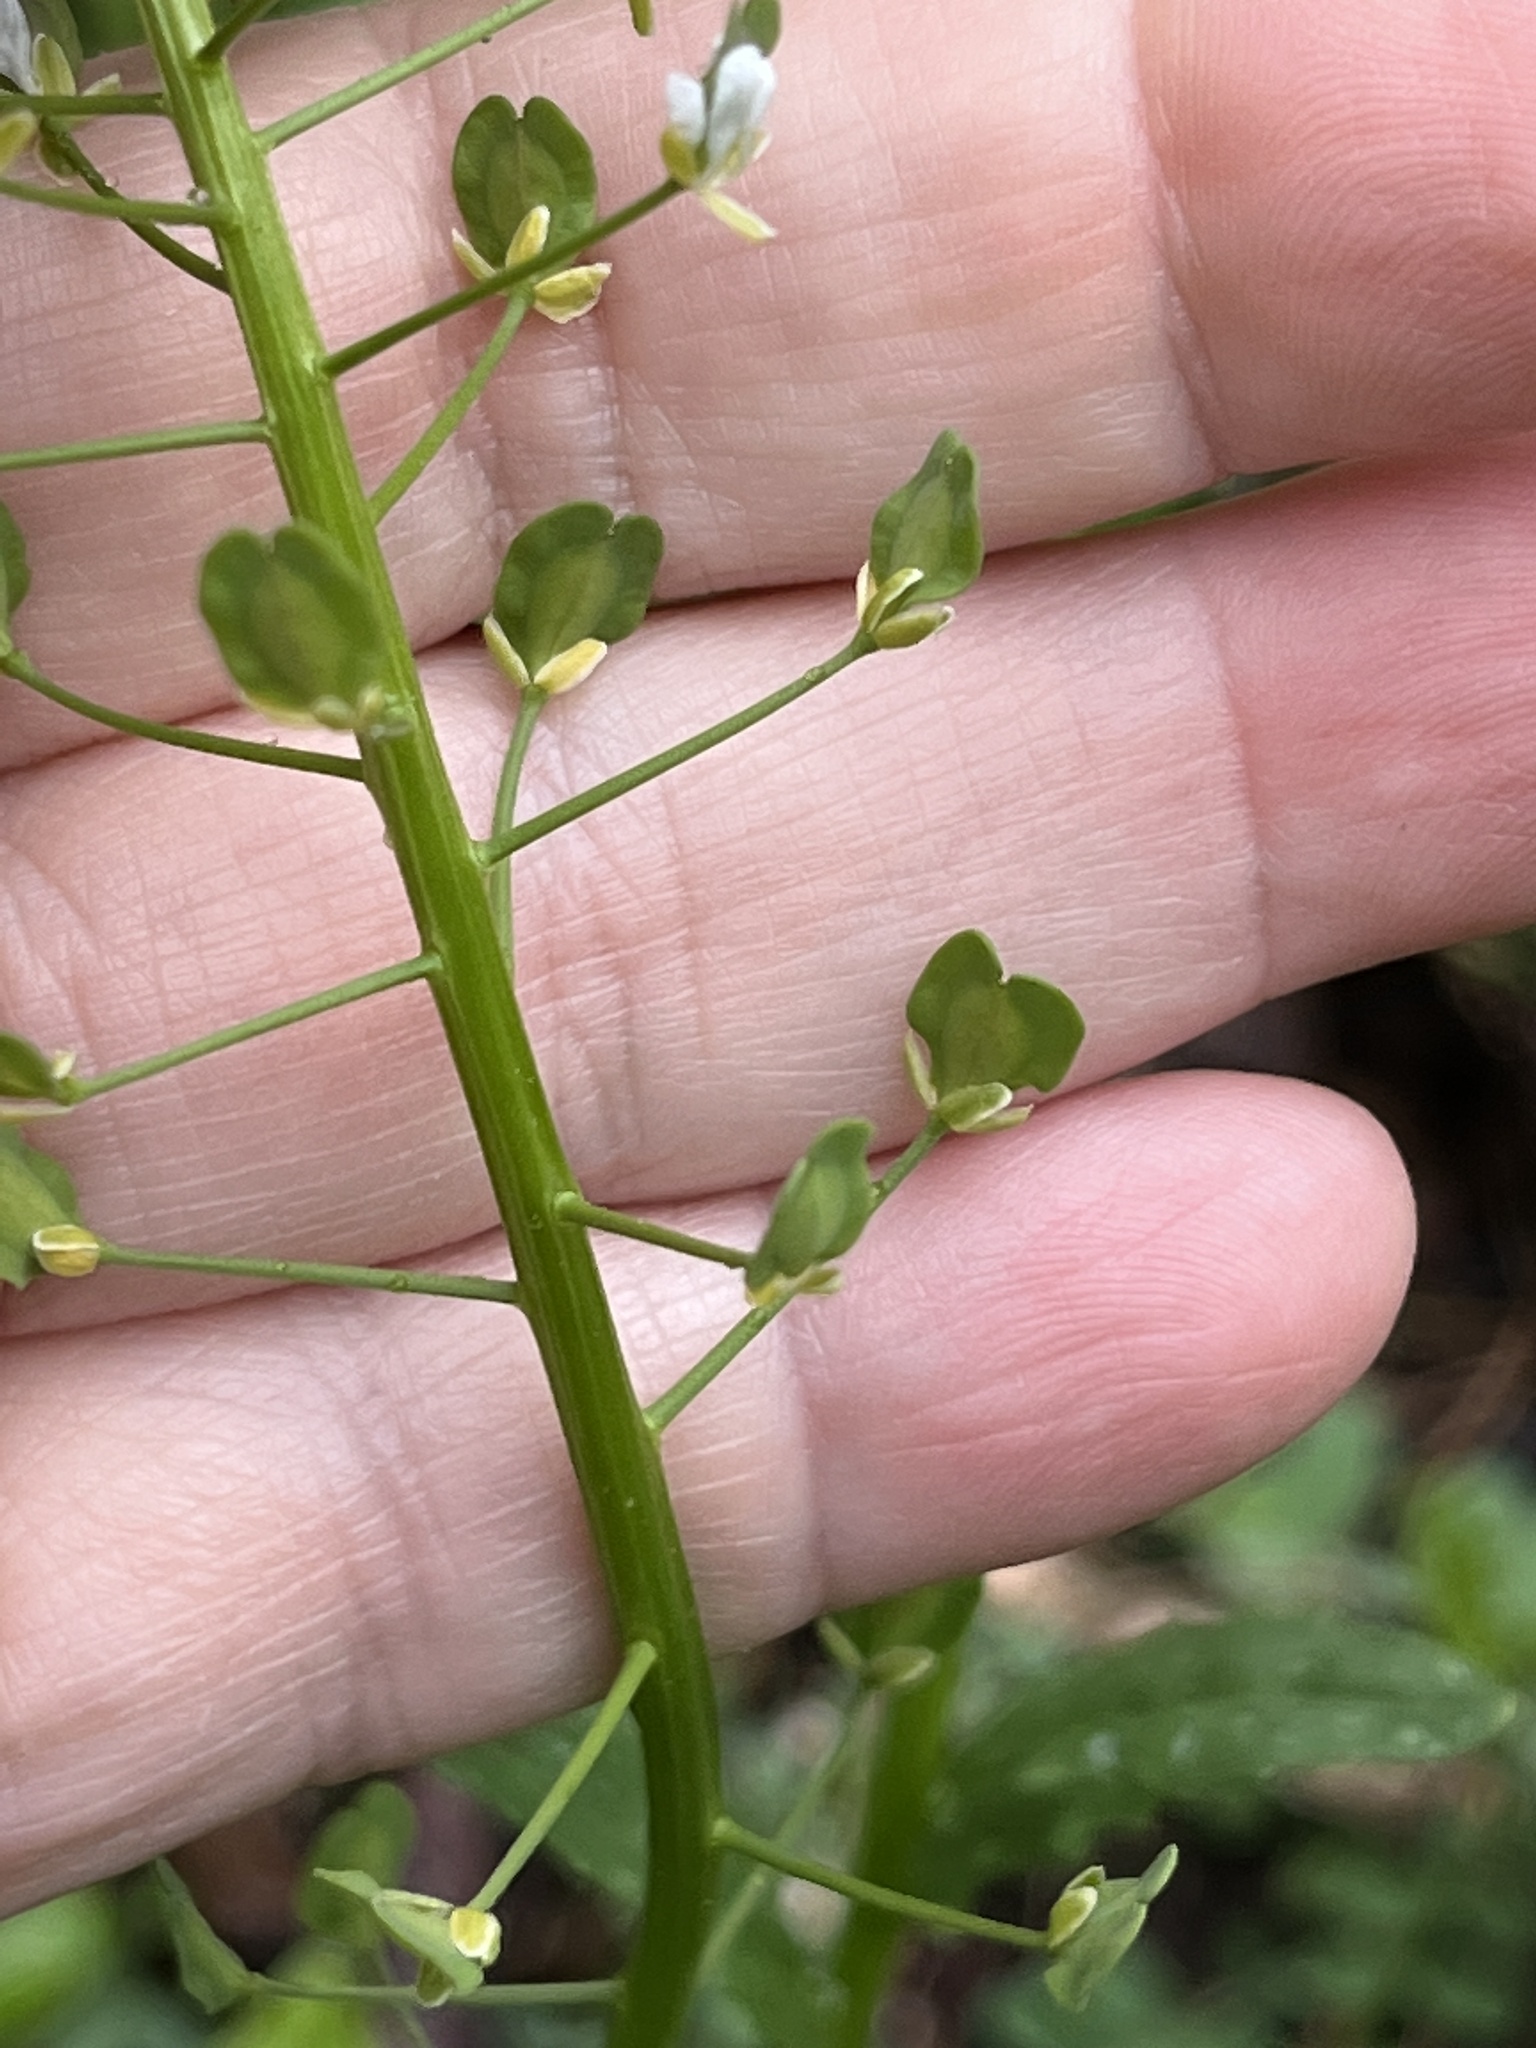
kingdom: Plantae
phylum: Tracheophyta
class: Magnoliopsida
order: Brassicales
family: Brassicaceae
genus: Thlaspi
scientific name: Thlaspi arvense
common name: Field pennycress
